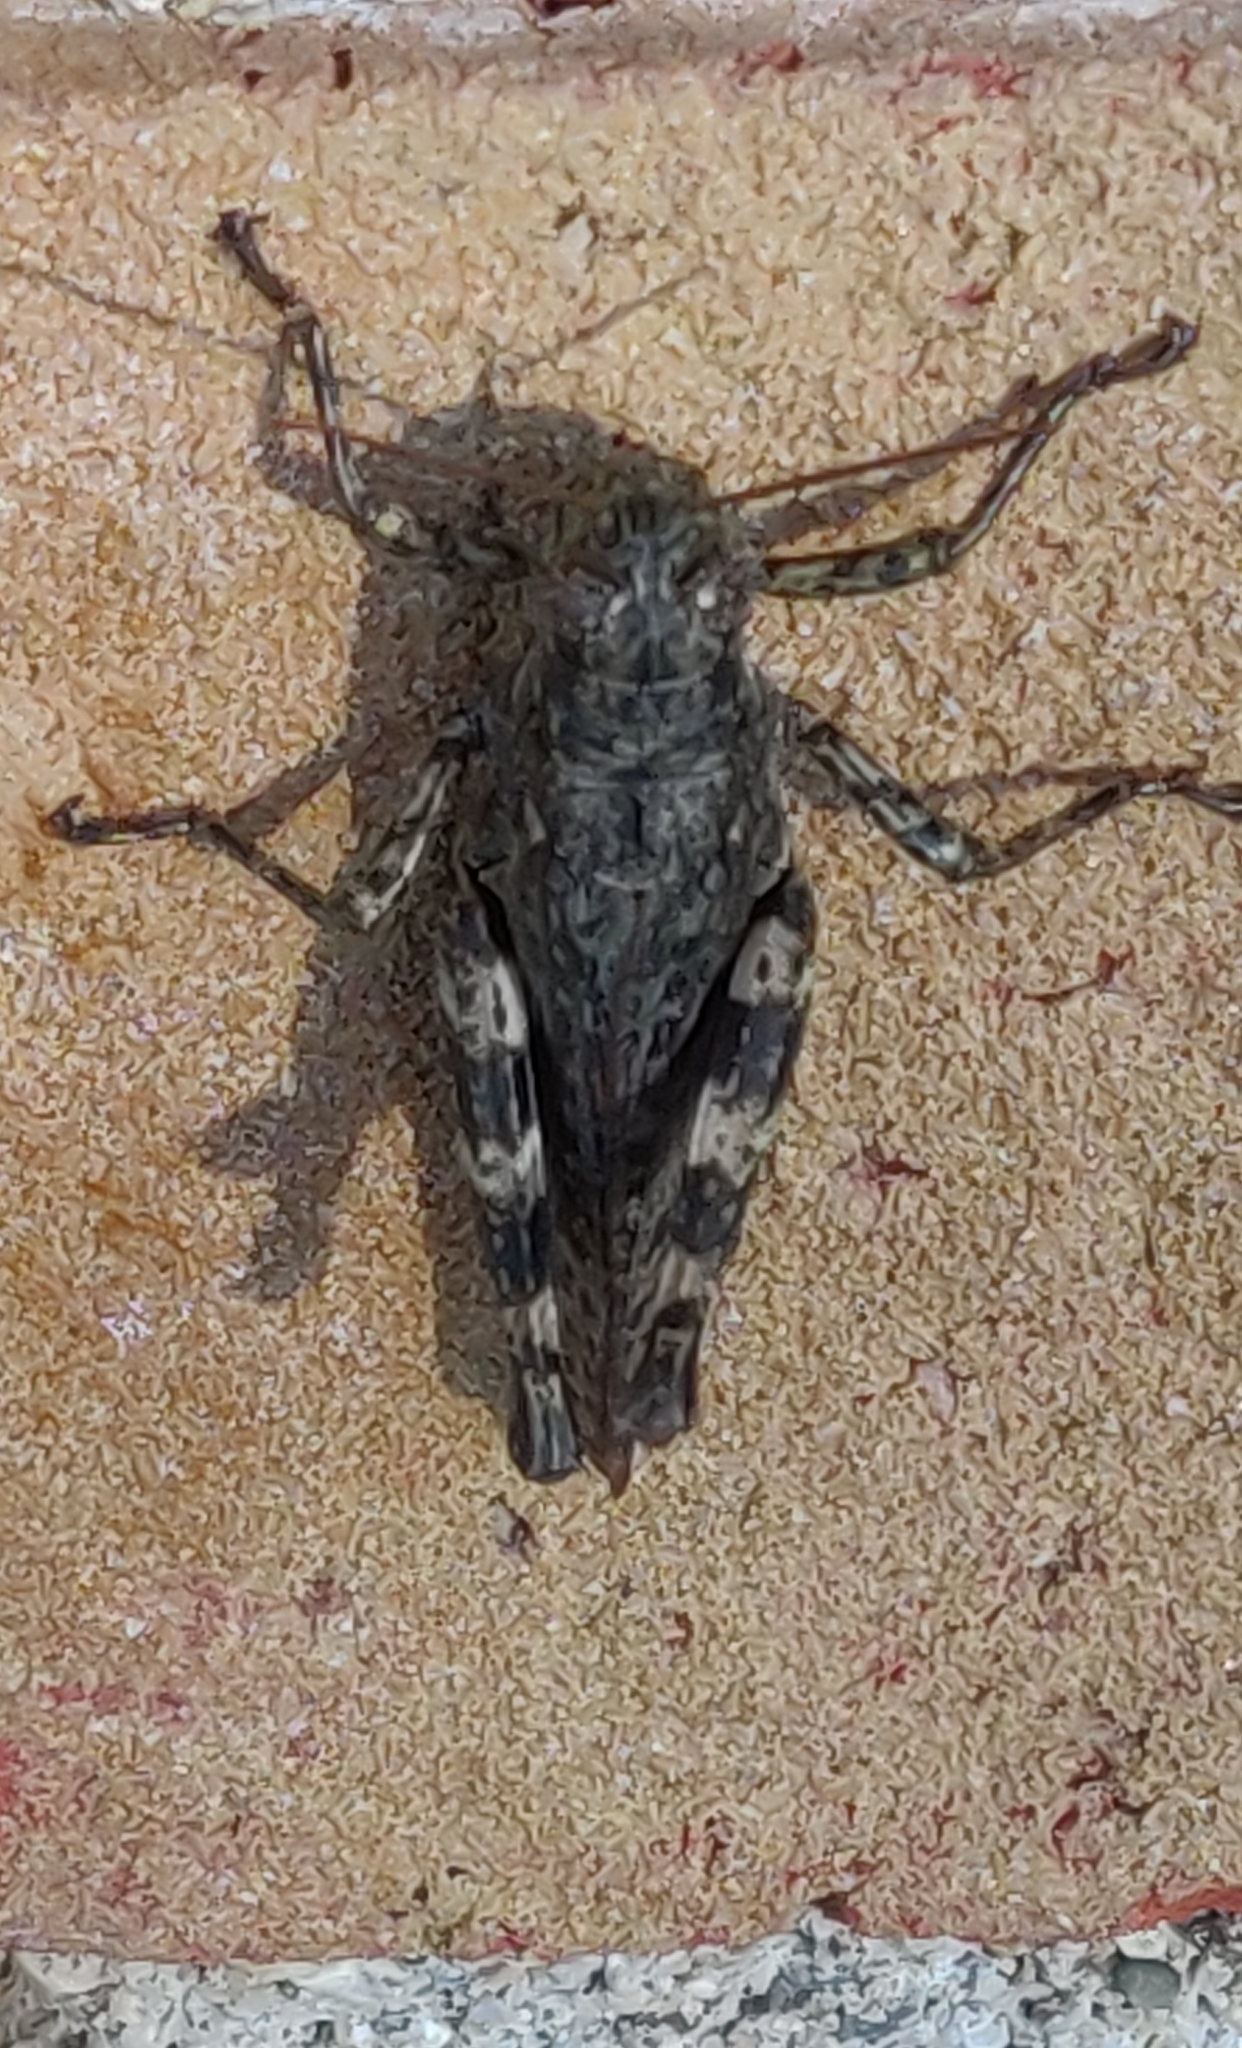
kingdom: Animalia
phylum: Arthropoda
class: Insecta
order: Orthoptera
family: Acrididae
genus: Melanoplus
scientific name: Melanoplus punctulatus
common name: Pine-tree spur-throat grasshopper
